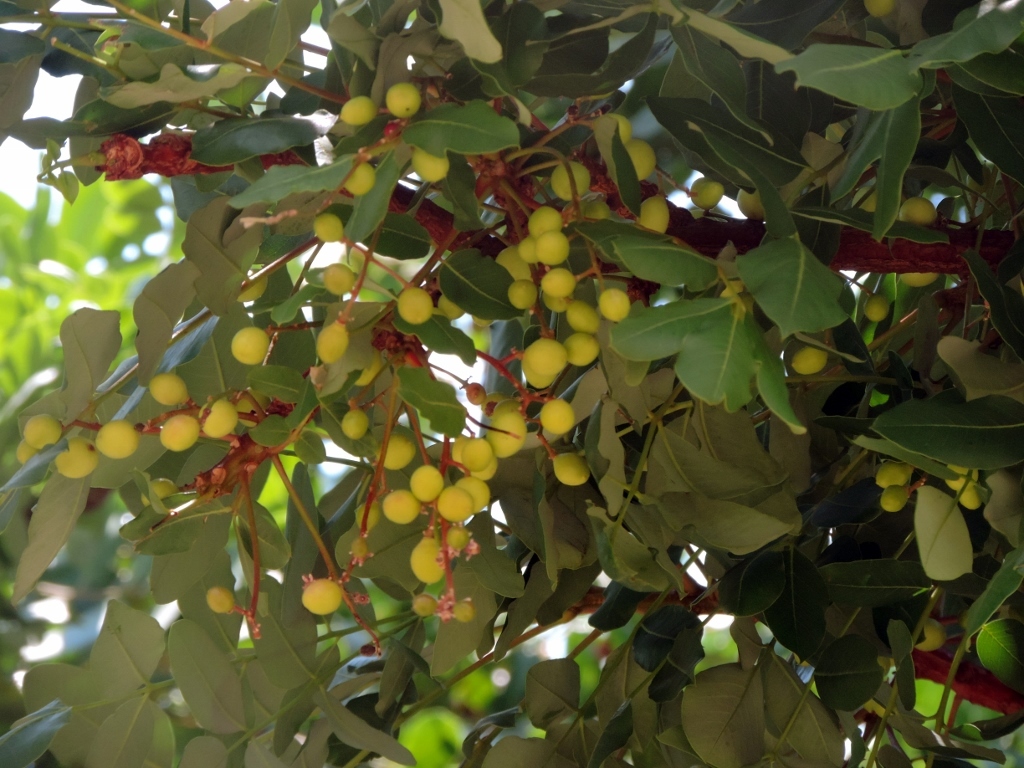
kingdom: Plantae
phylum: Tracheophyta
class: Magnoliopsida
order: Sapindales
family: Meliaceae
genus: Ekebergia
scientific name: Ekebergia benguelensis
